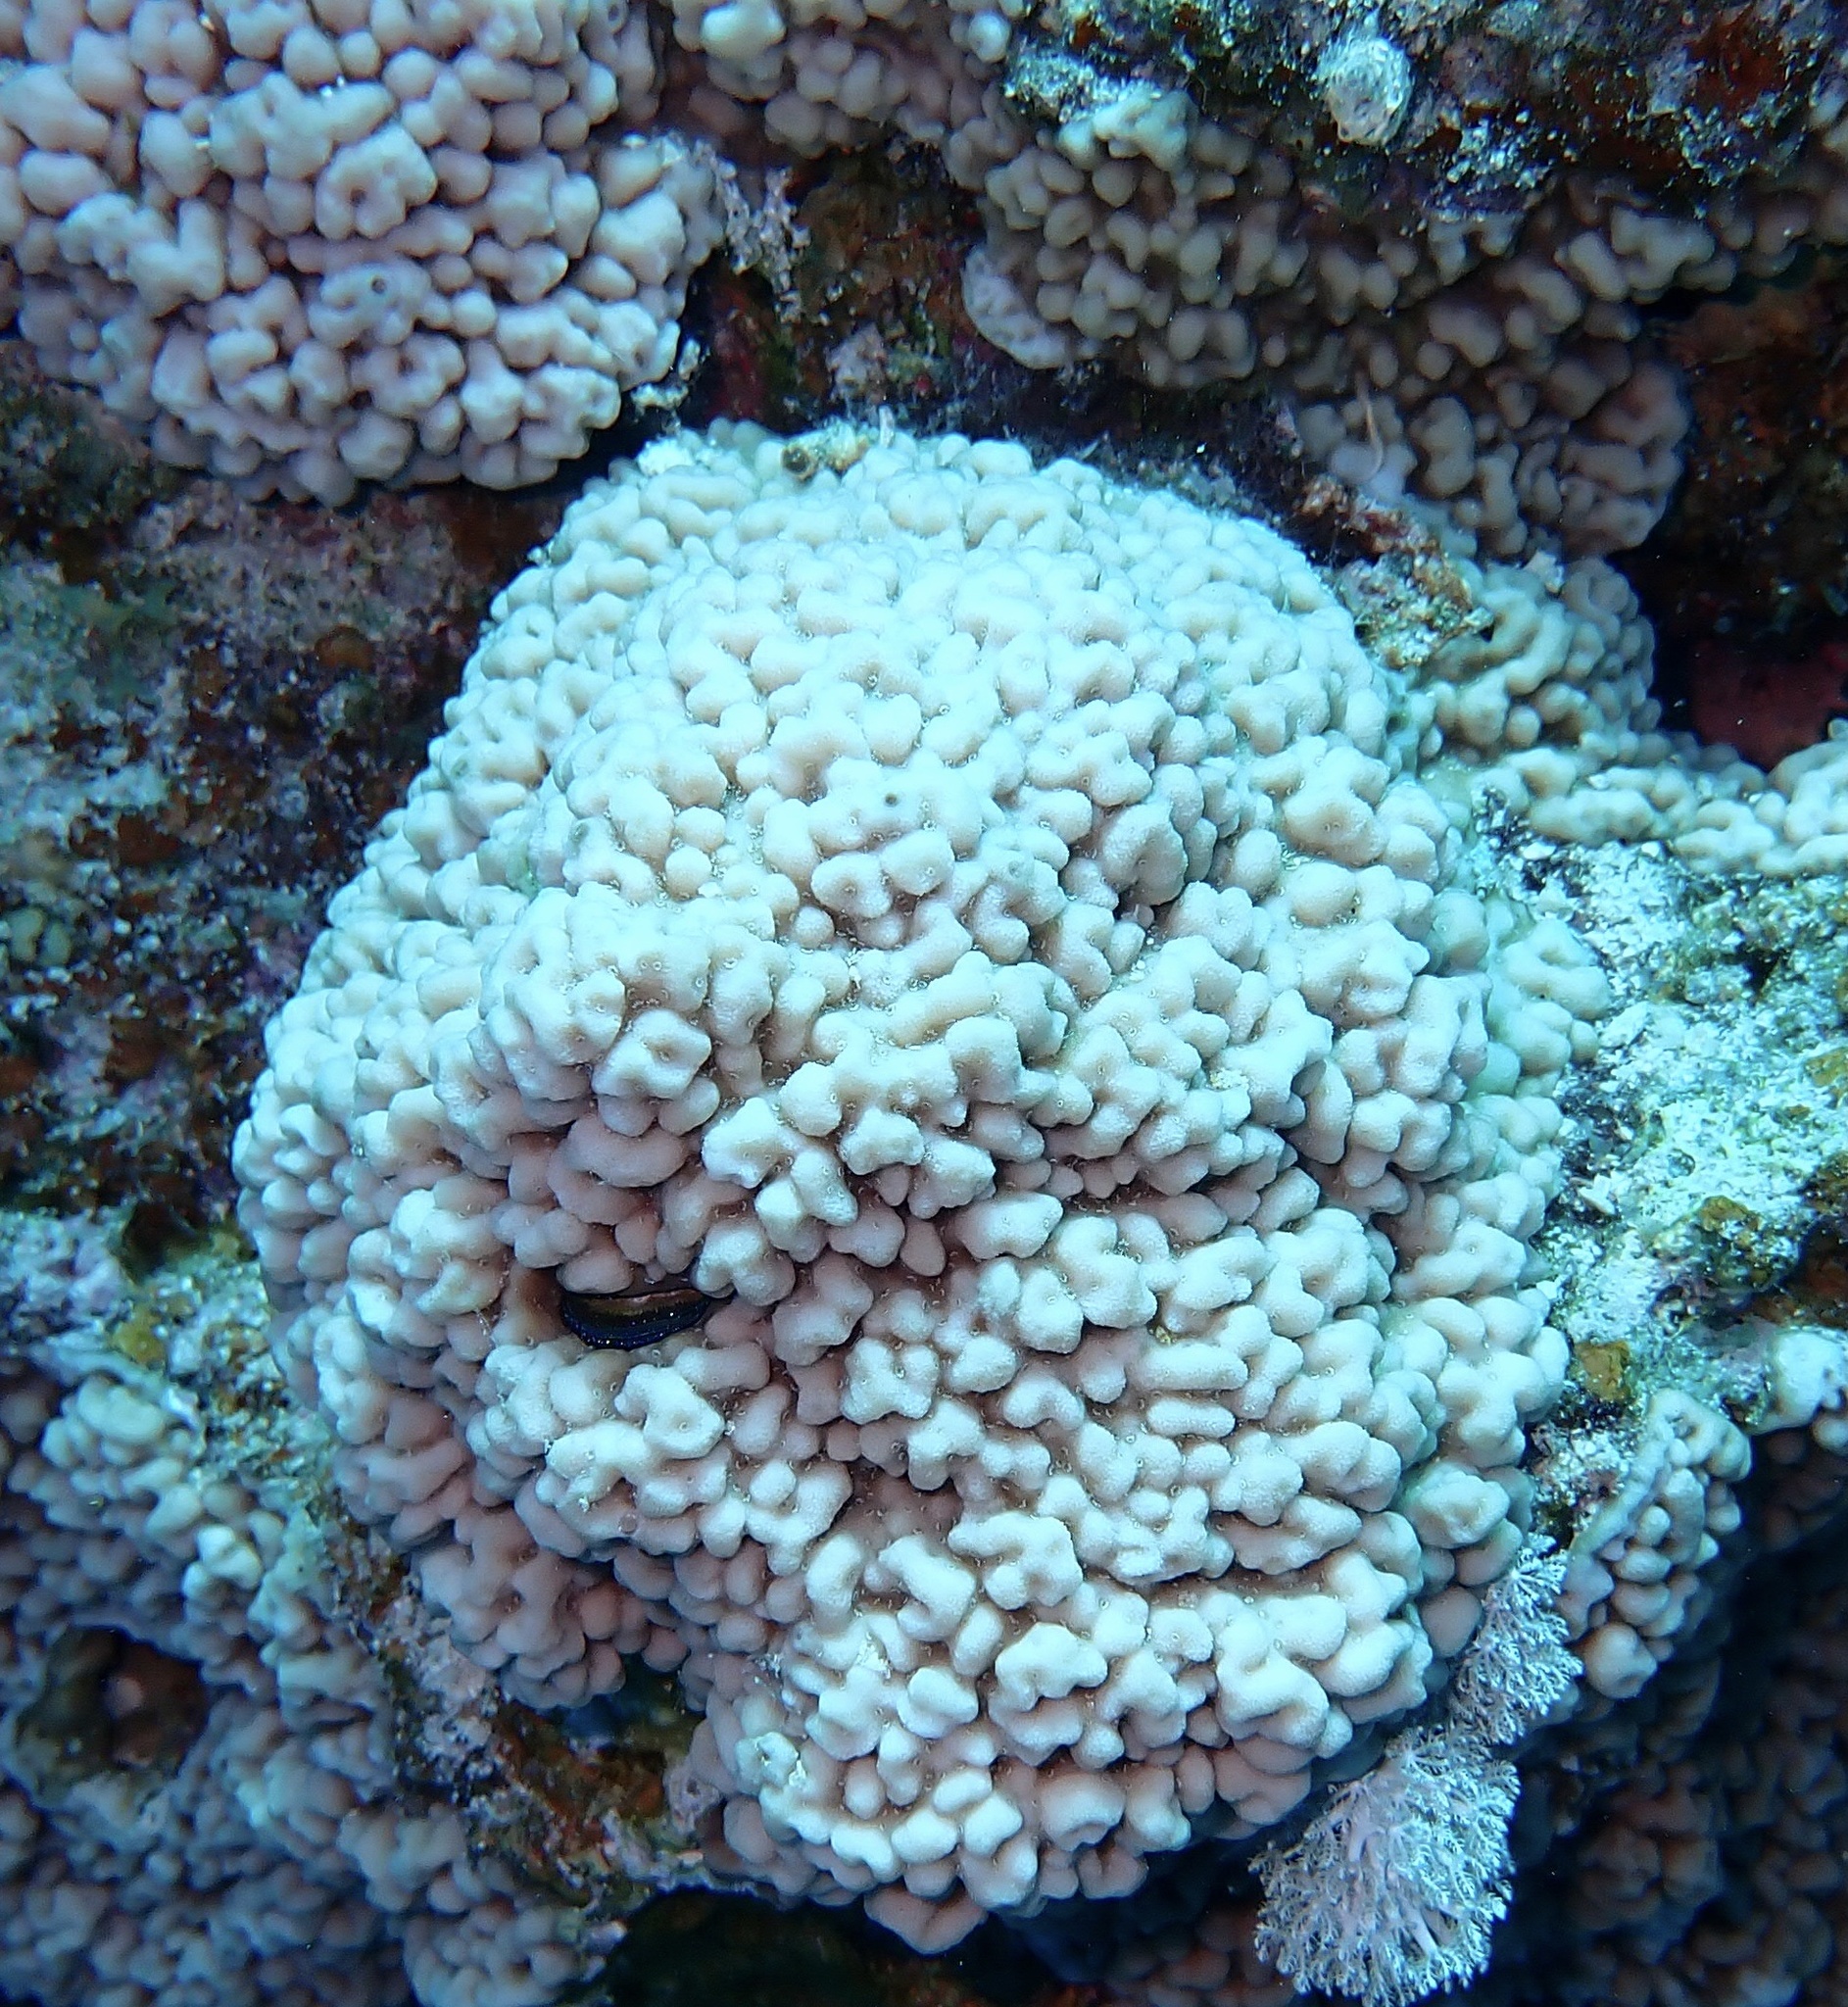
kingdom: Animalia
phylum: Cnidaria
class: Anthozoa
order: Scleractinia
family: Acroporidae
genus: Montipora
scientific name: Montipora crypta
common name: Pore coral
